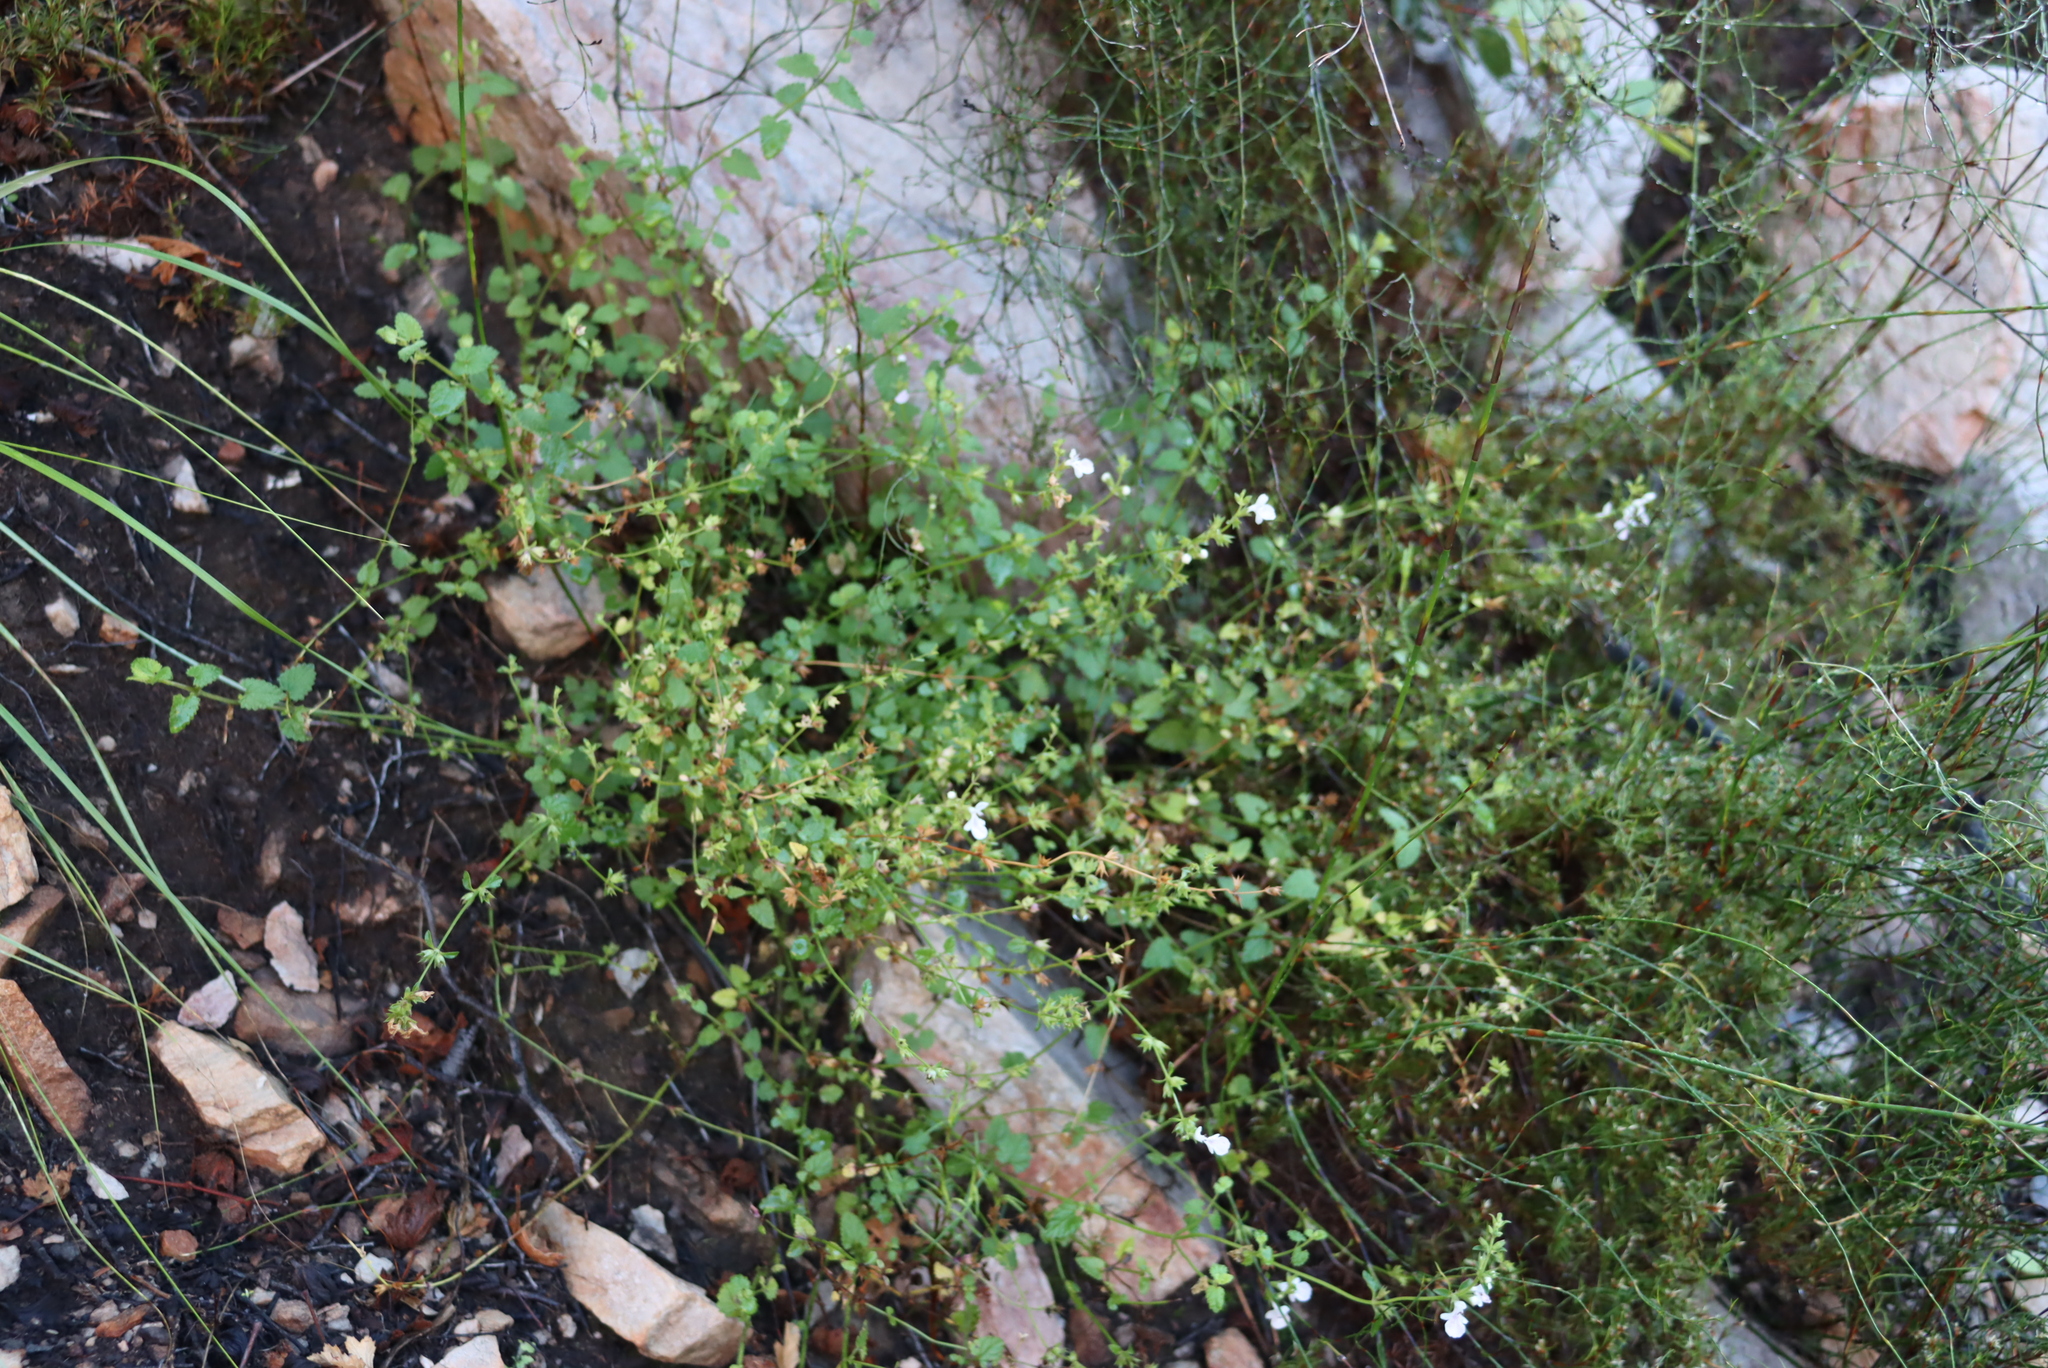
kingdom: Plantae
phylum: Tracheophyta
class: Magnoliopsida
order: Lamiales
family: Lamiaceae
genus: Stachys
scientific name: Stachys aethiopica
